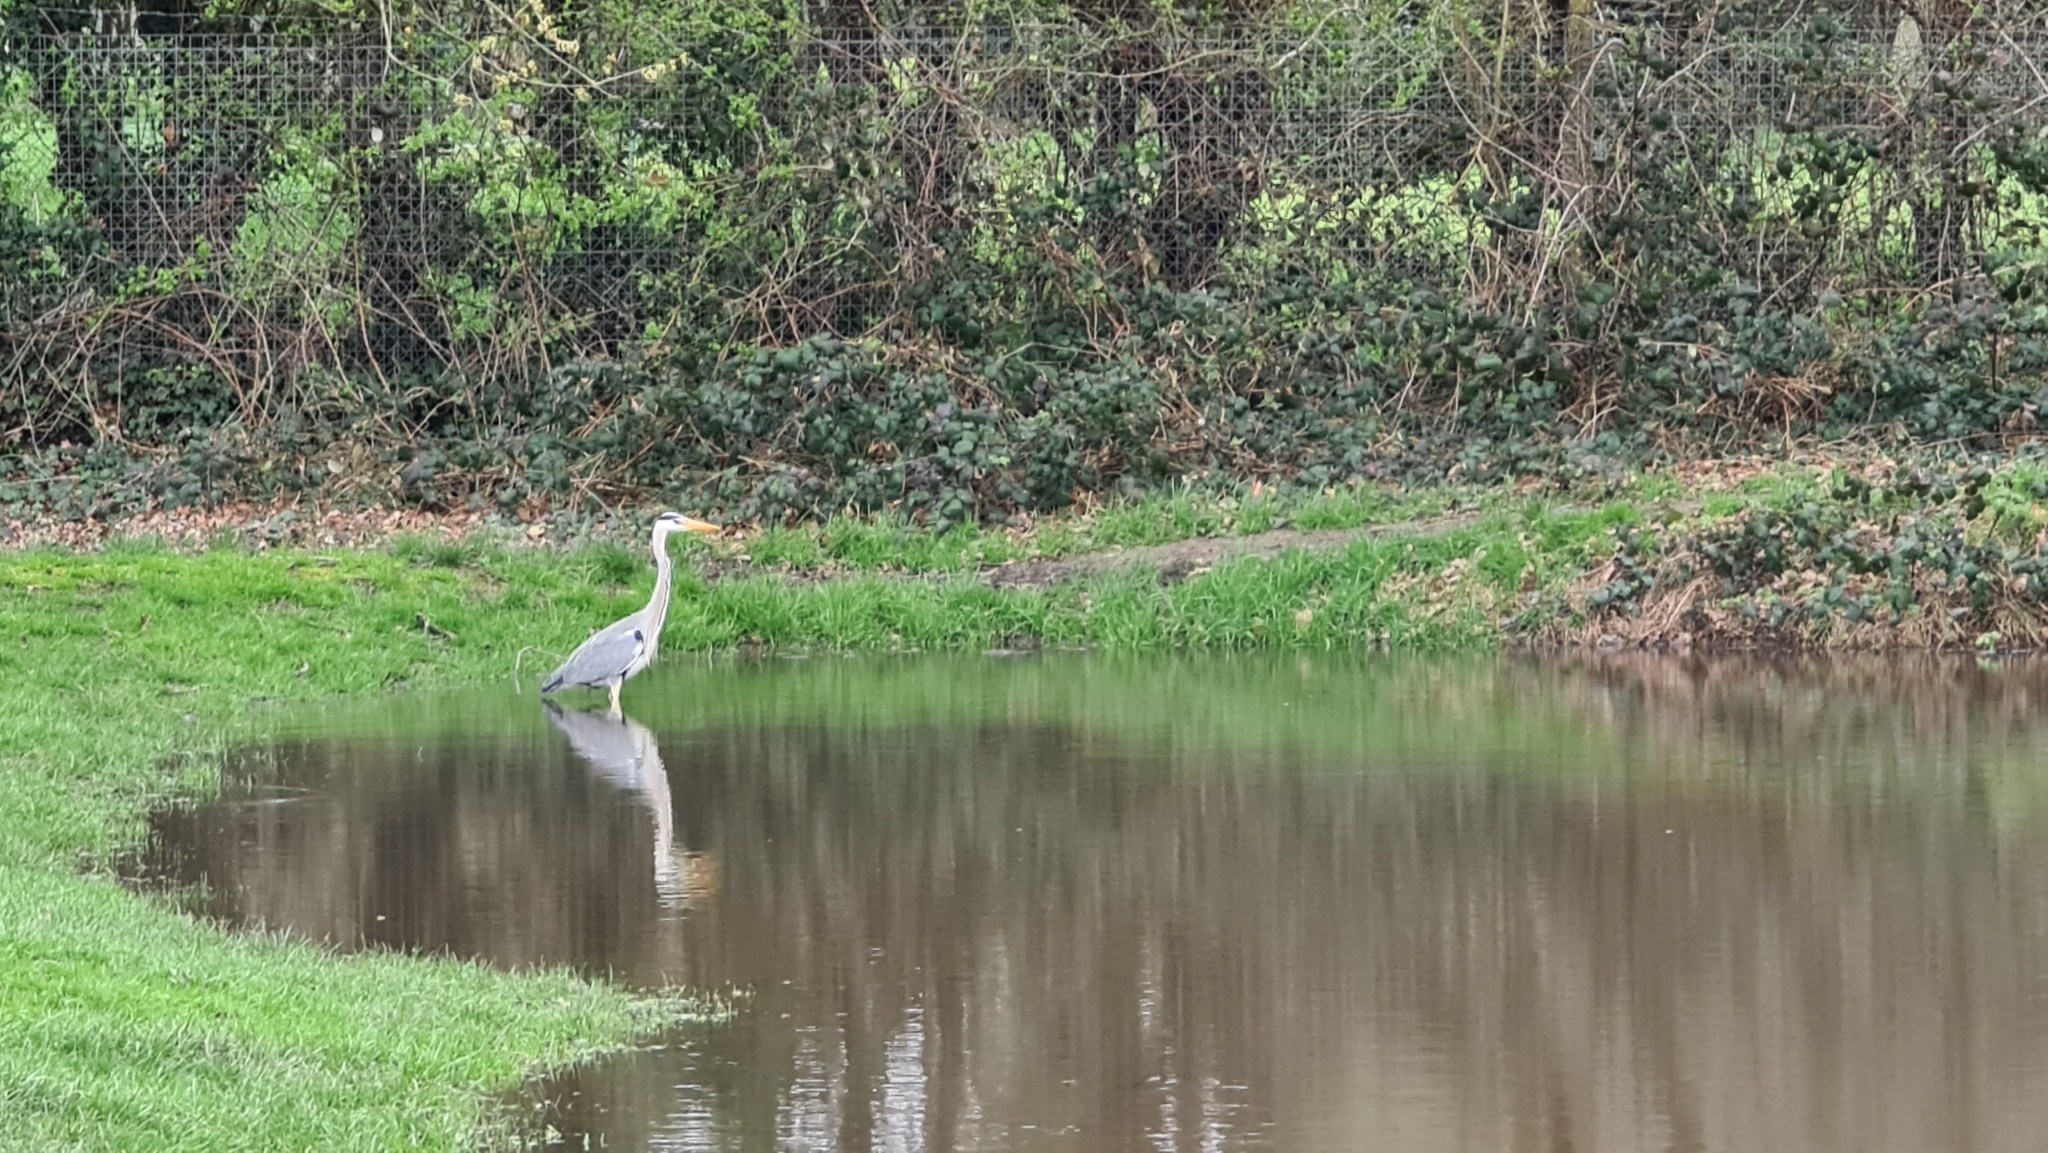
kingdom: Animalia
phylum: Chordata
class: Aves
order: Pelecaniformes
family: Ardeidae
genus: Ardea
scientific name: Ardea cinerea
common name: Grey heron
